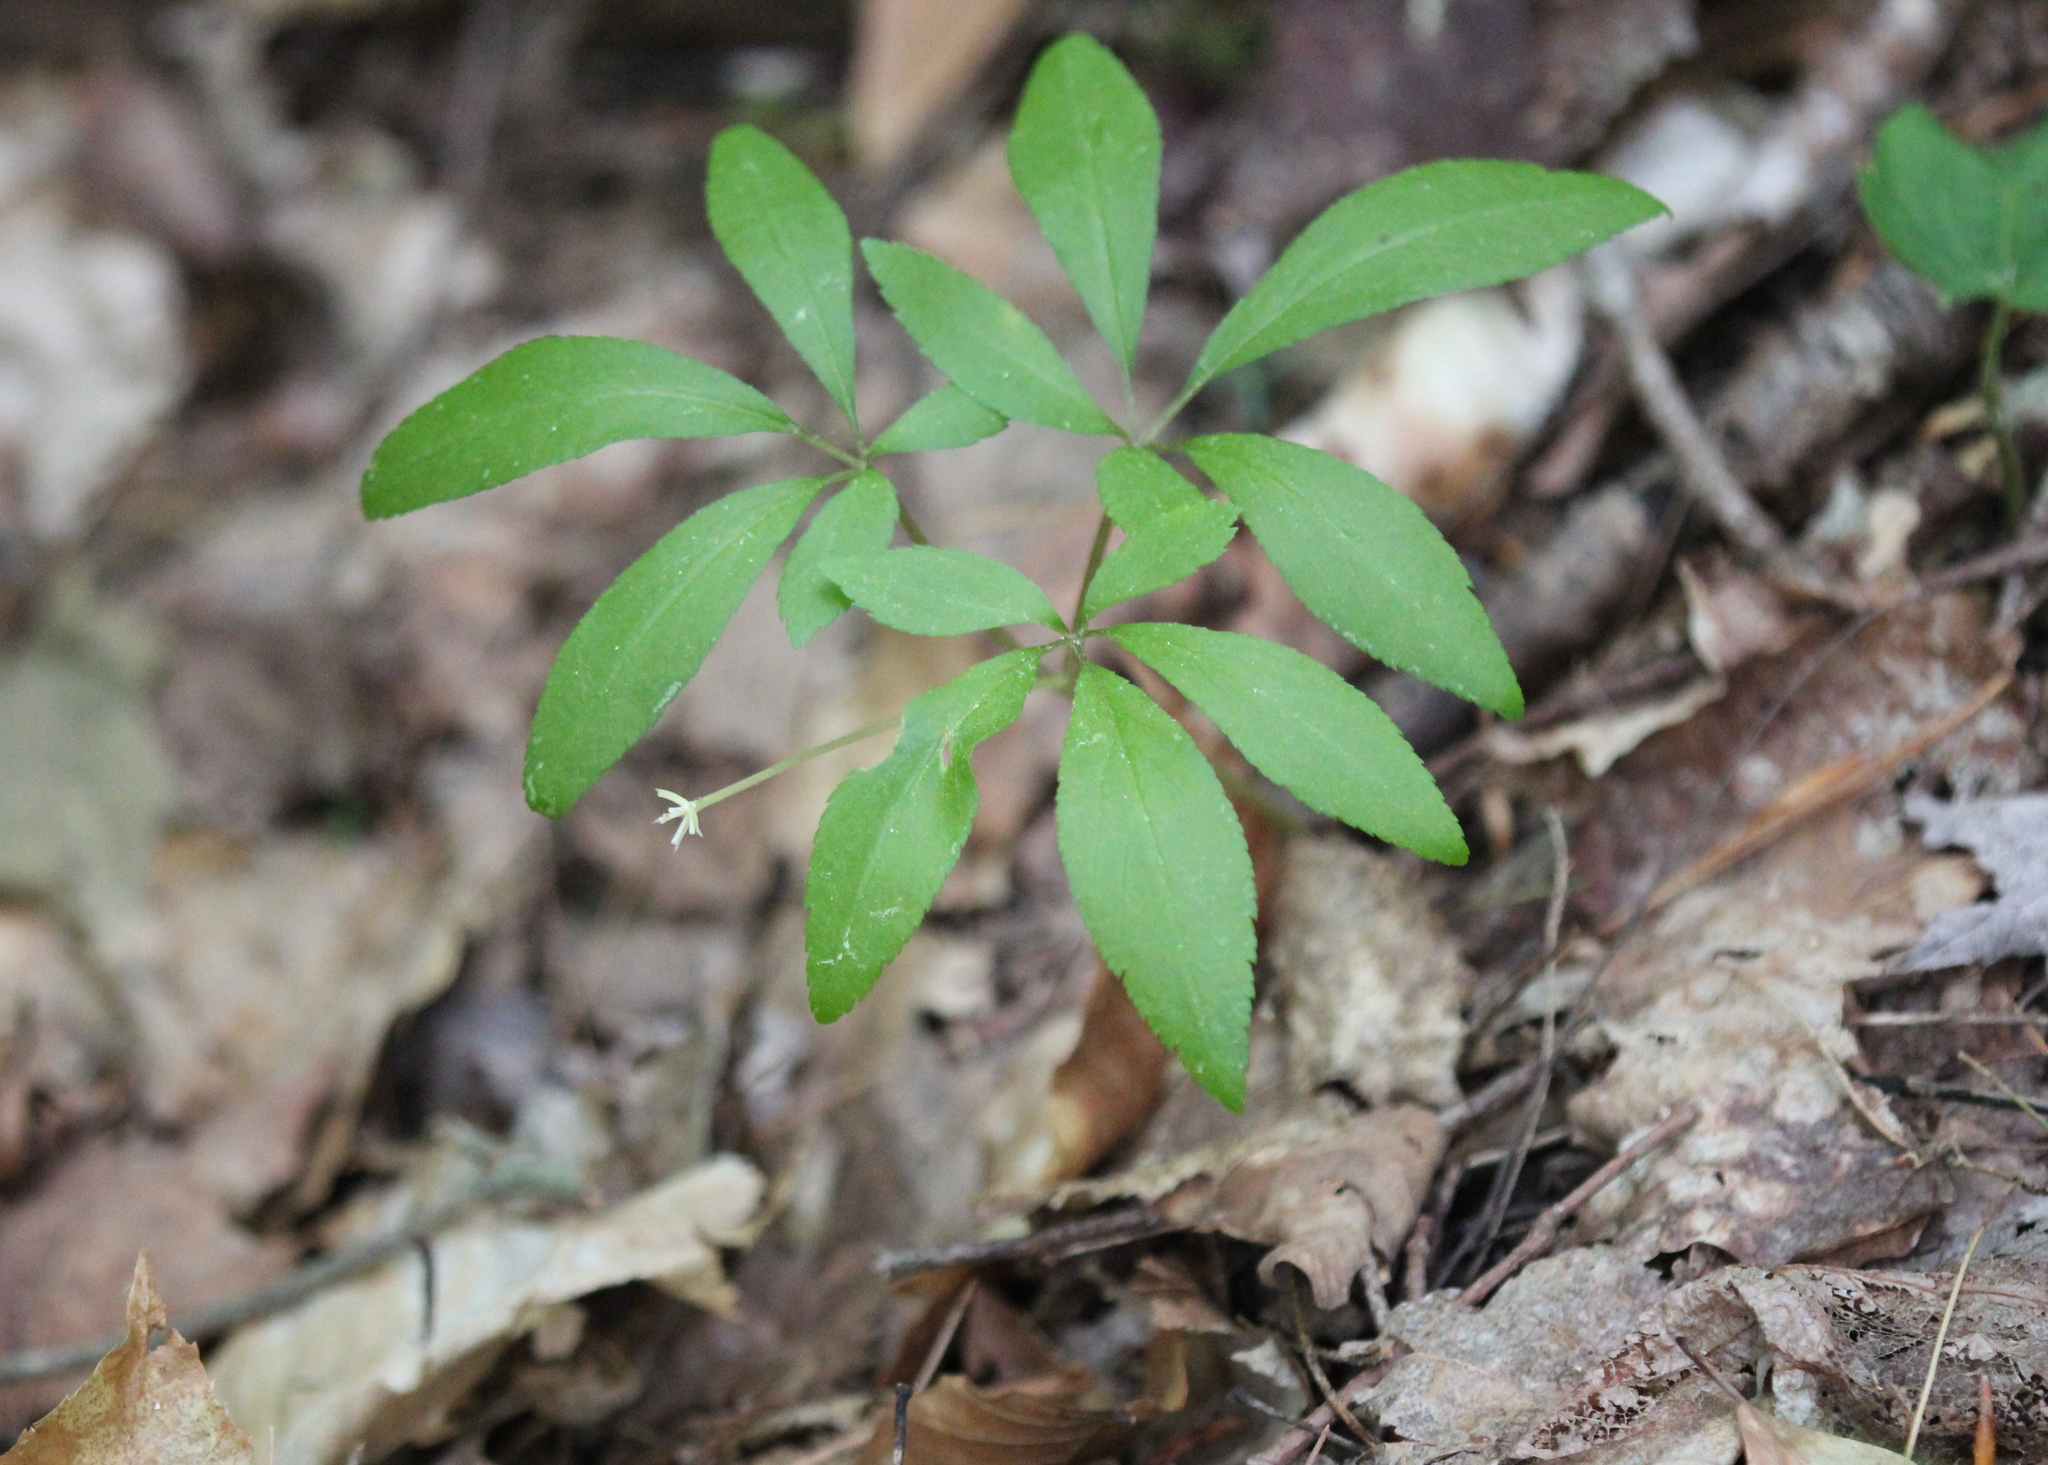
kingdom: Plantae
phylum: Tracheophyta
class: Magnoliopsida
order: Apiales
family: Araliaceae
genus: Panax
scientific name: Panax trifolius
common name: Dwarf ginseng
